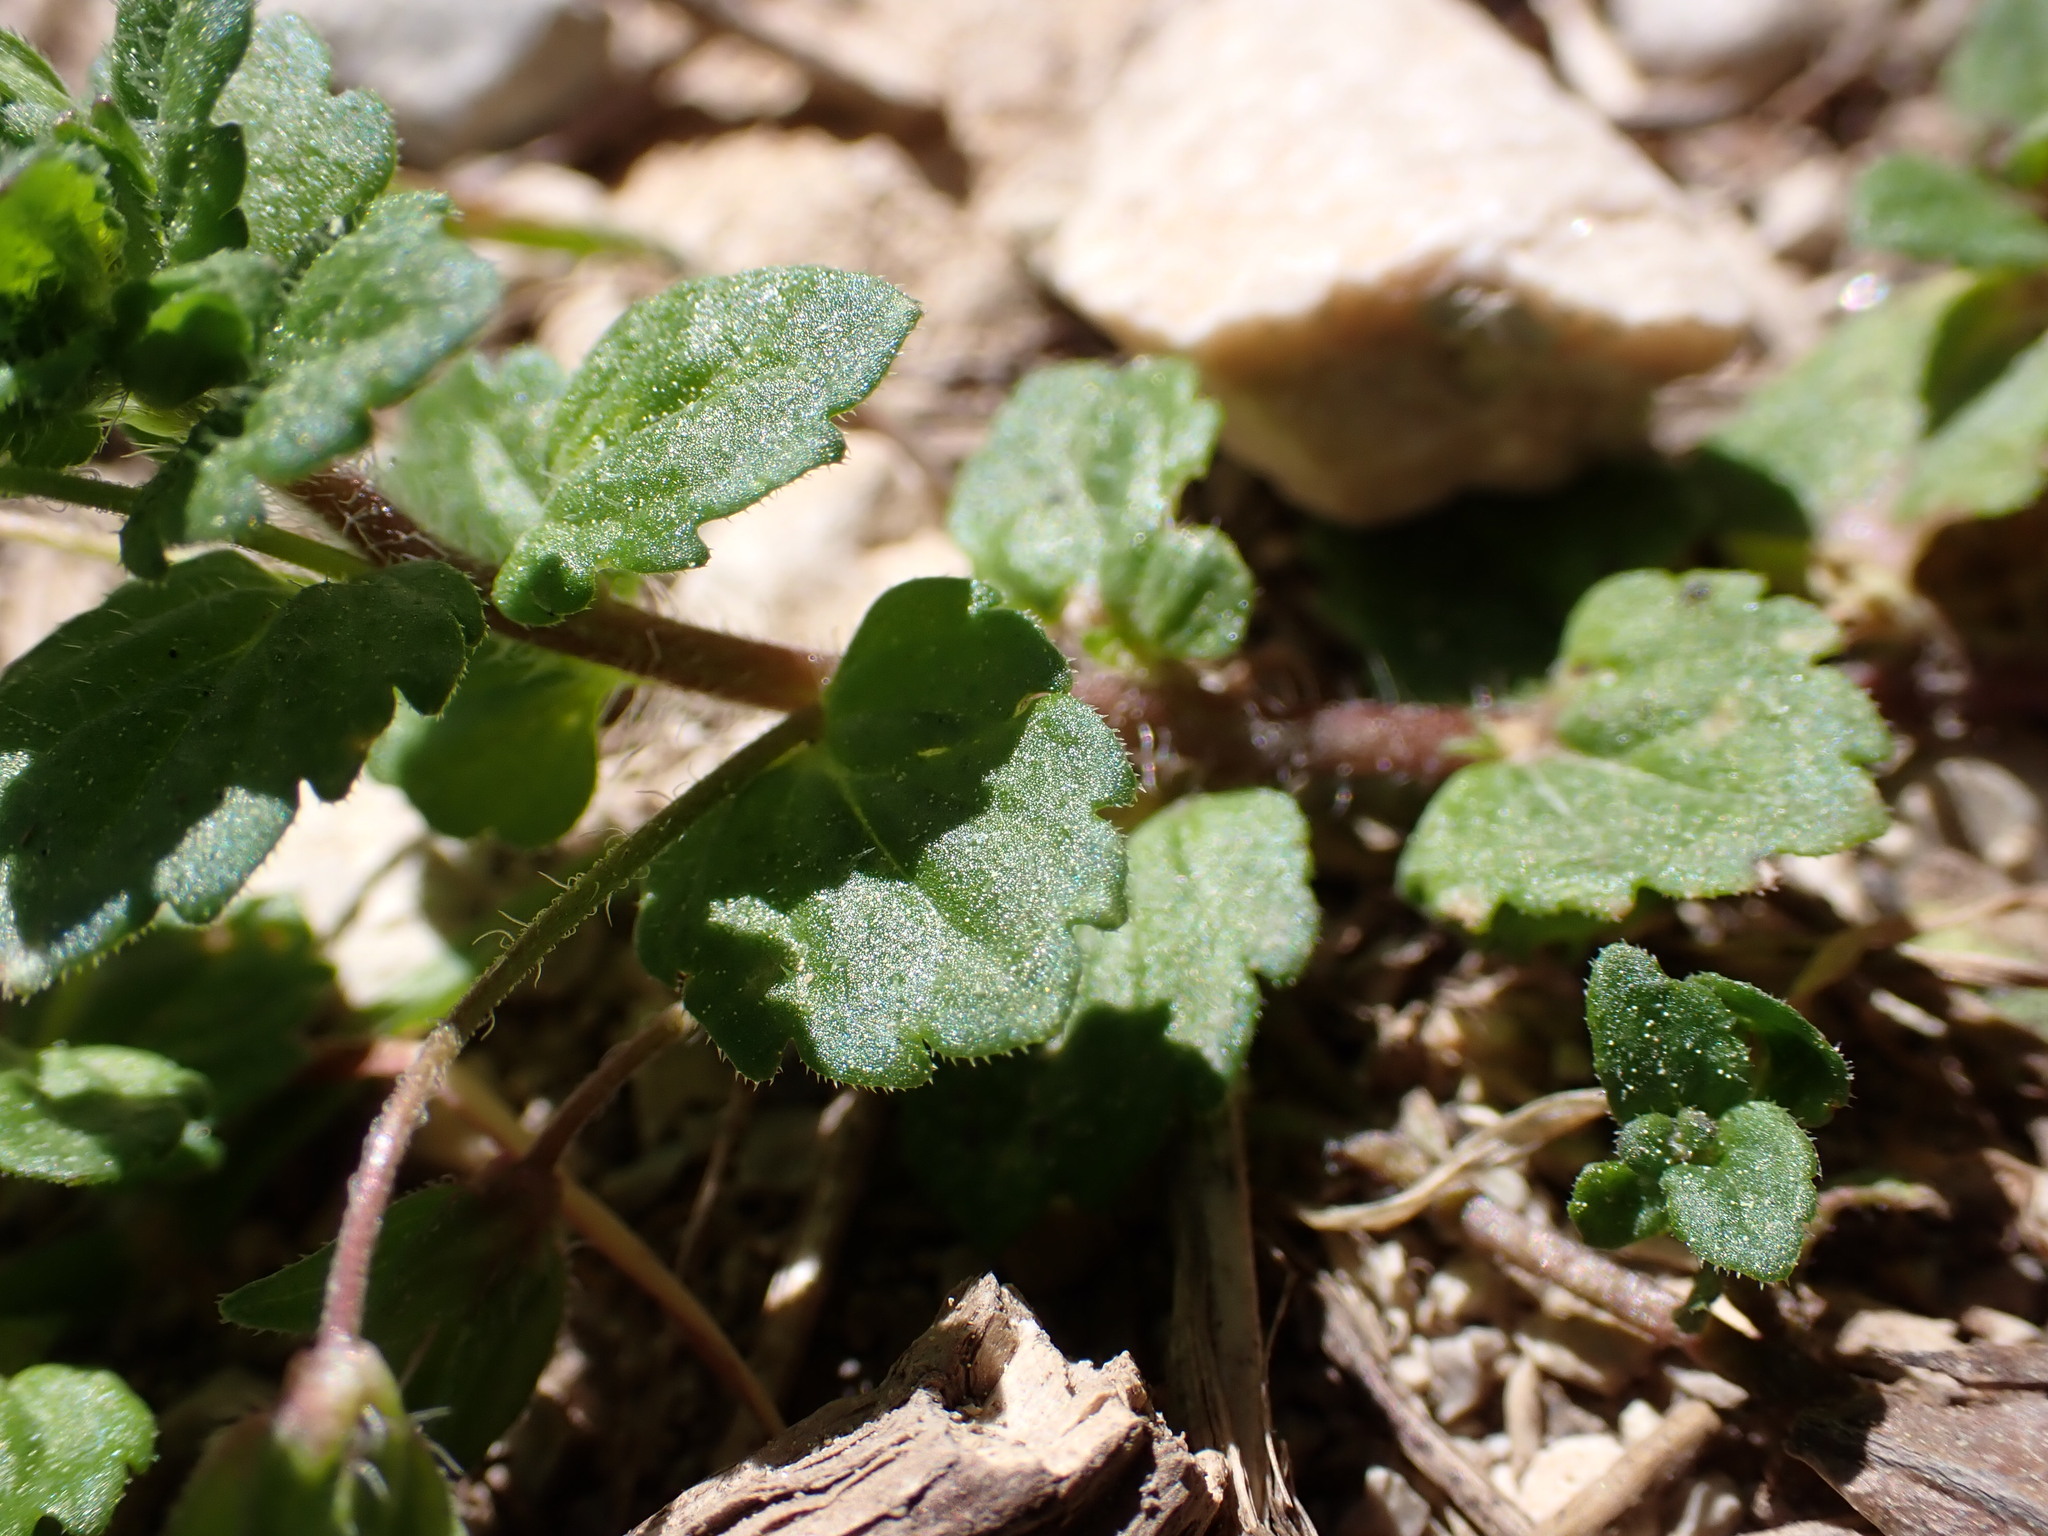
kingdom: Plantae
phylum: Tracheophyta
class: Magnoliopsida
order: Lamiales
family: Plantaginaceae
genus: Veronica
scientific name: Veronica persica
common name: Common field-speedwell
